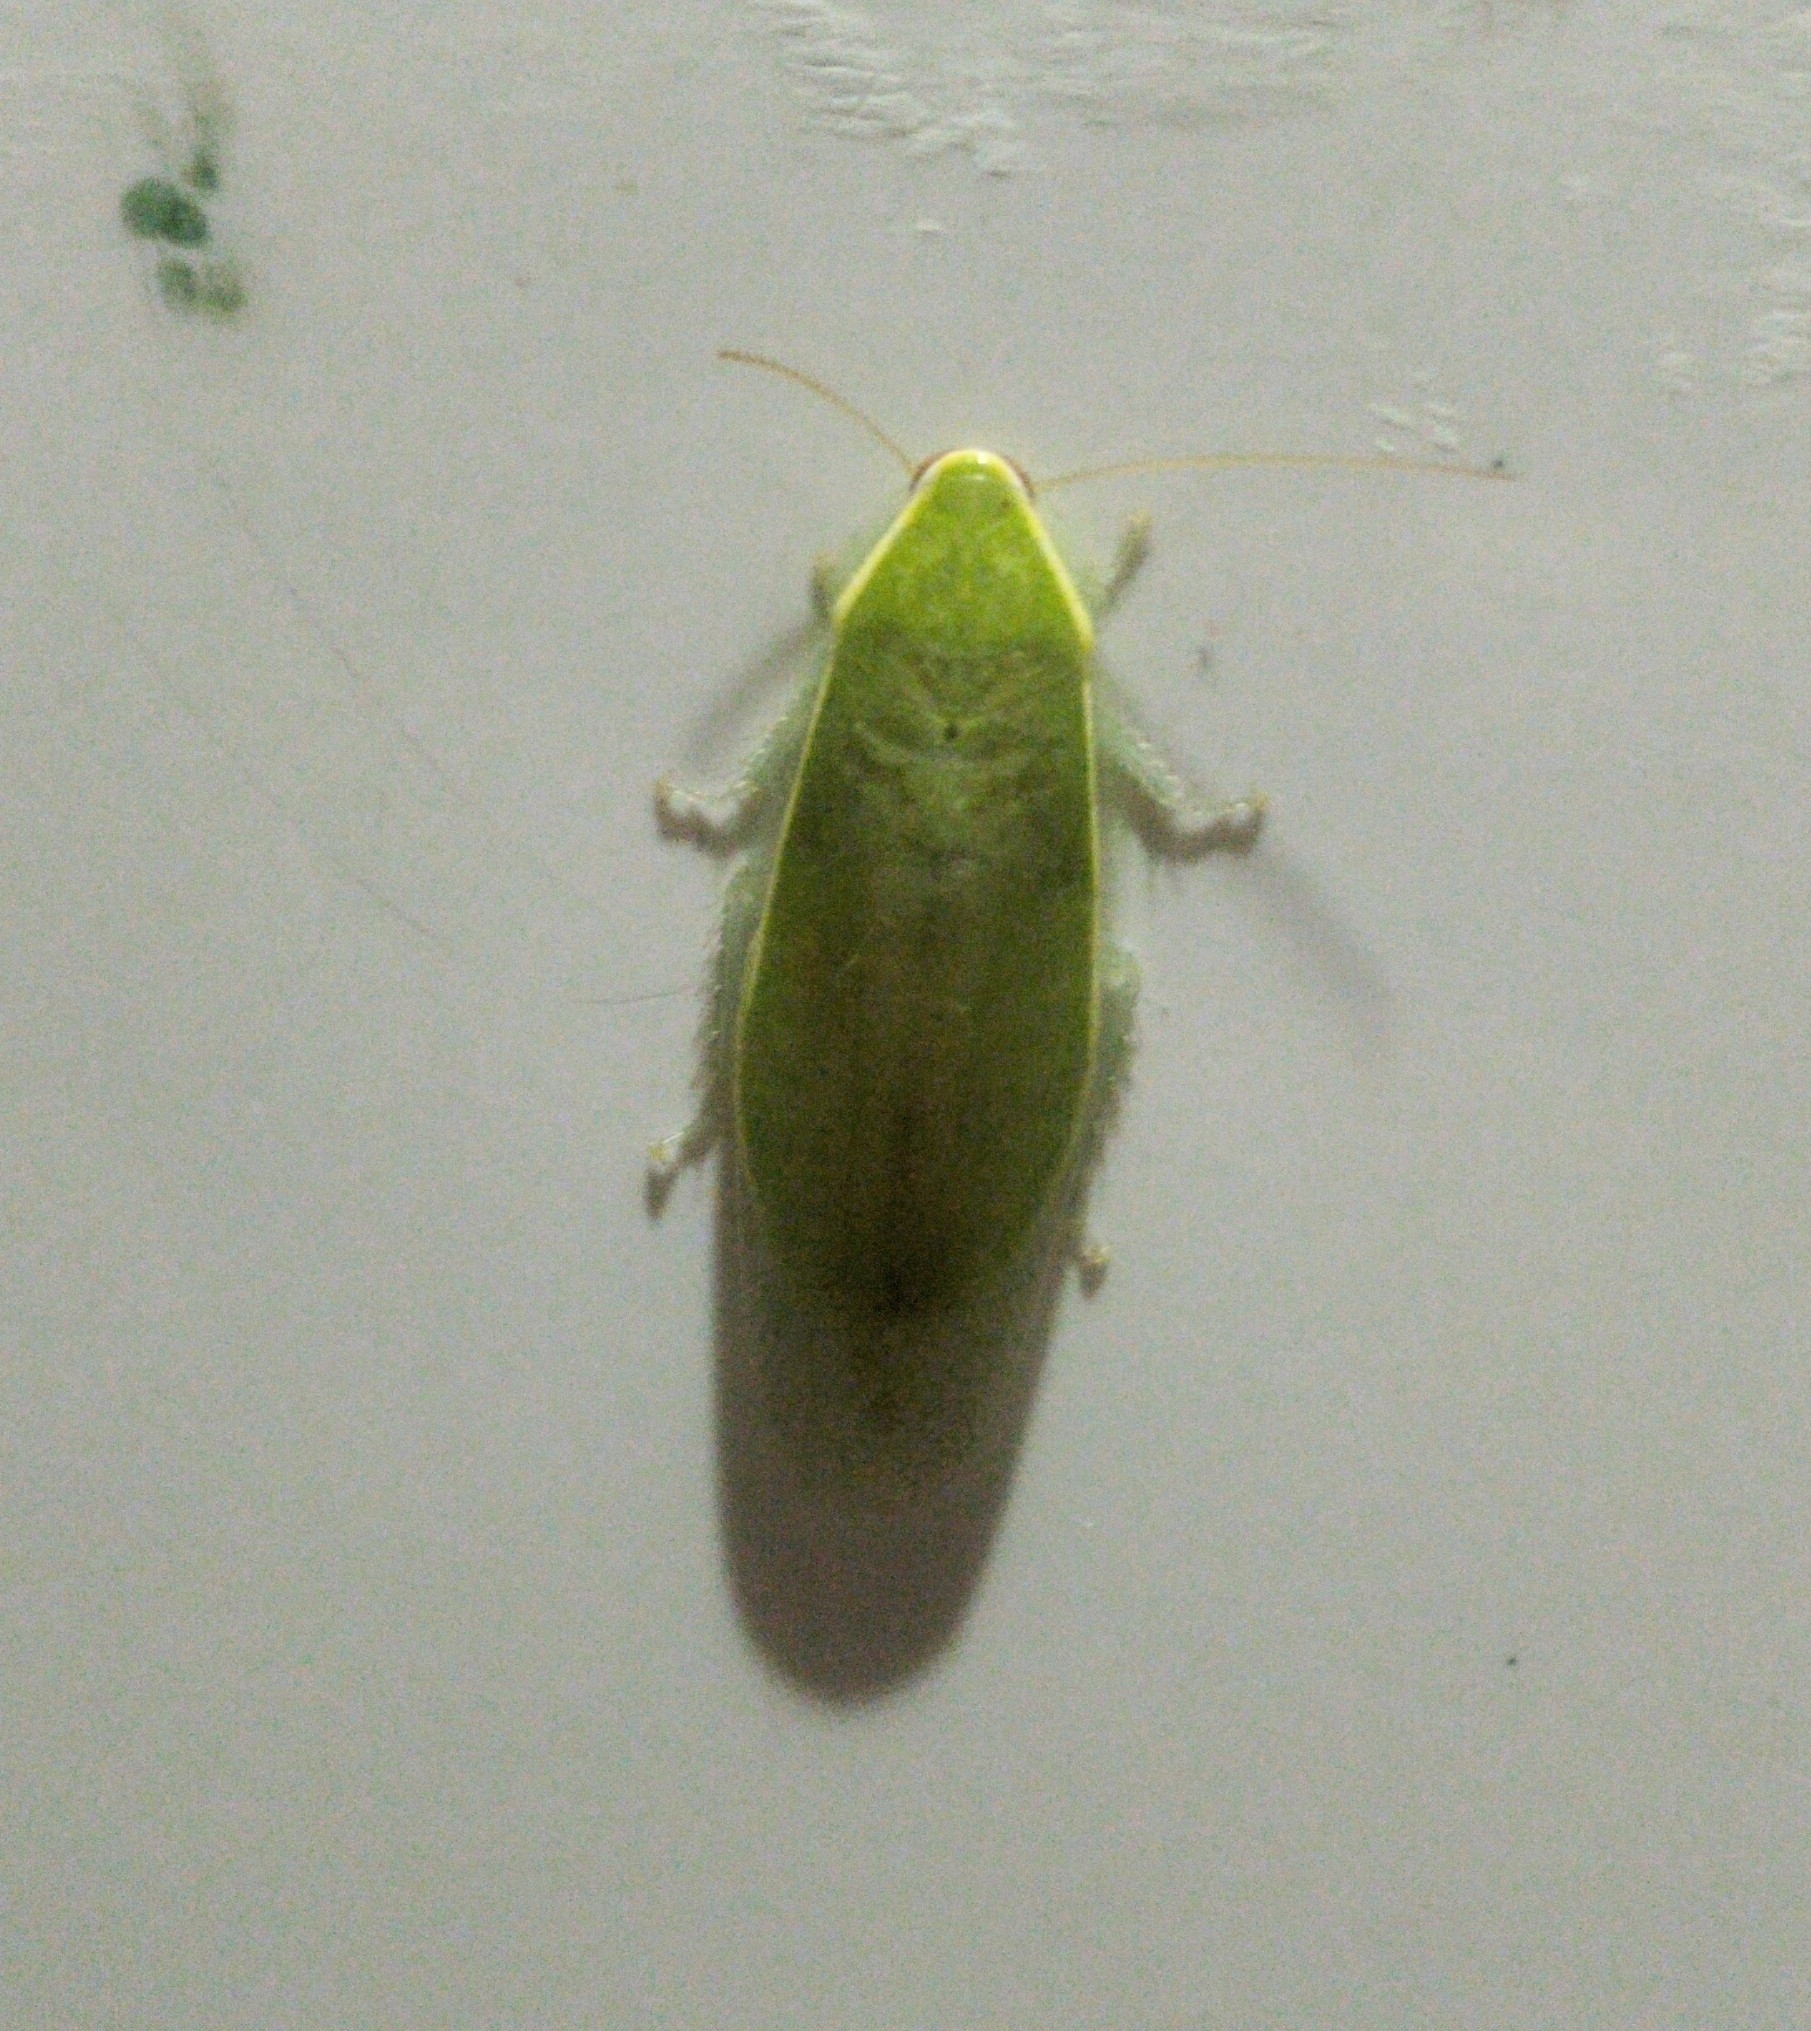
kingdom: Animalia
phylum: Arthropoda
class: Insecta
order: Blattodea
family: Blaberidae
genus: Panchlora
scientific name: Panchlora nivea
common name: Cuban cockroach
